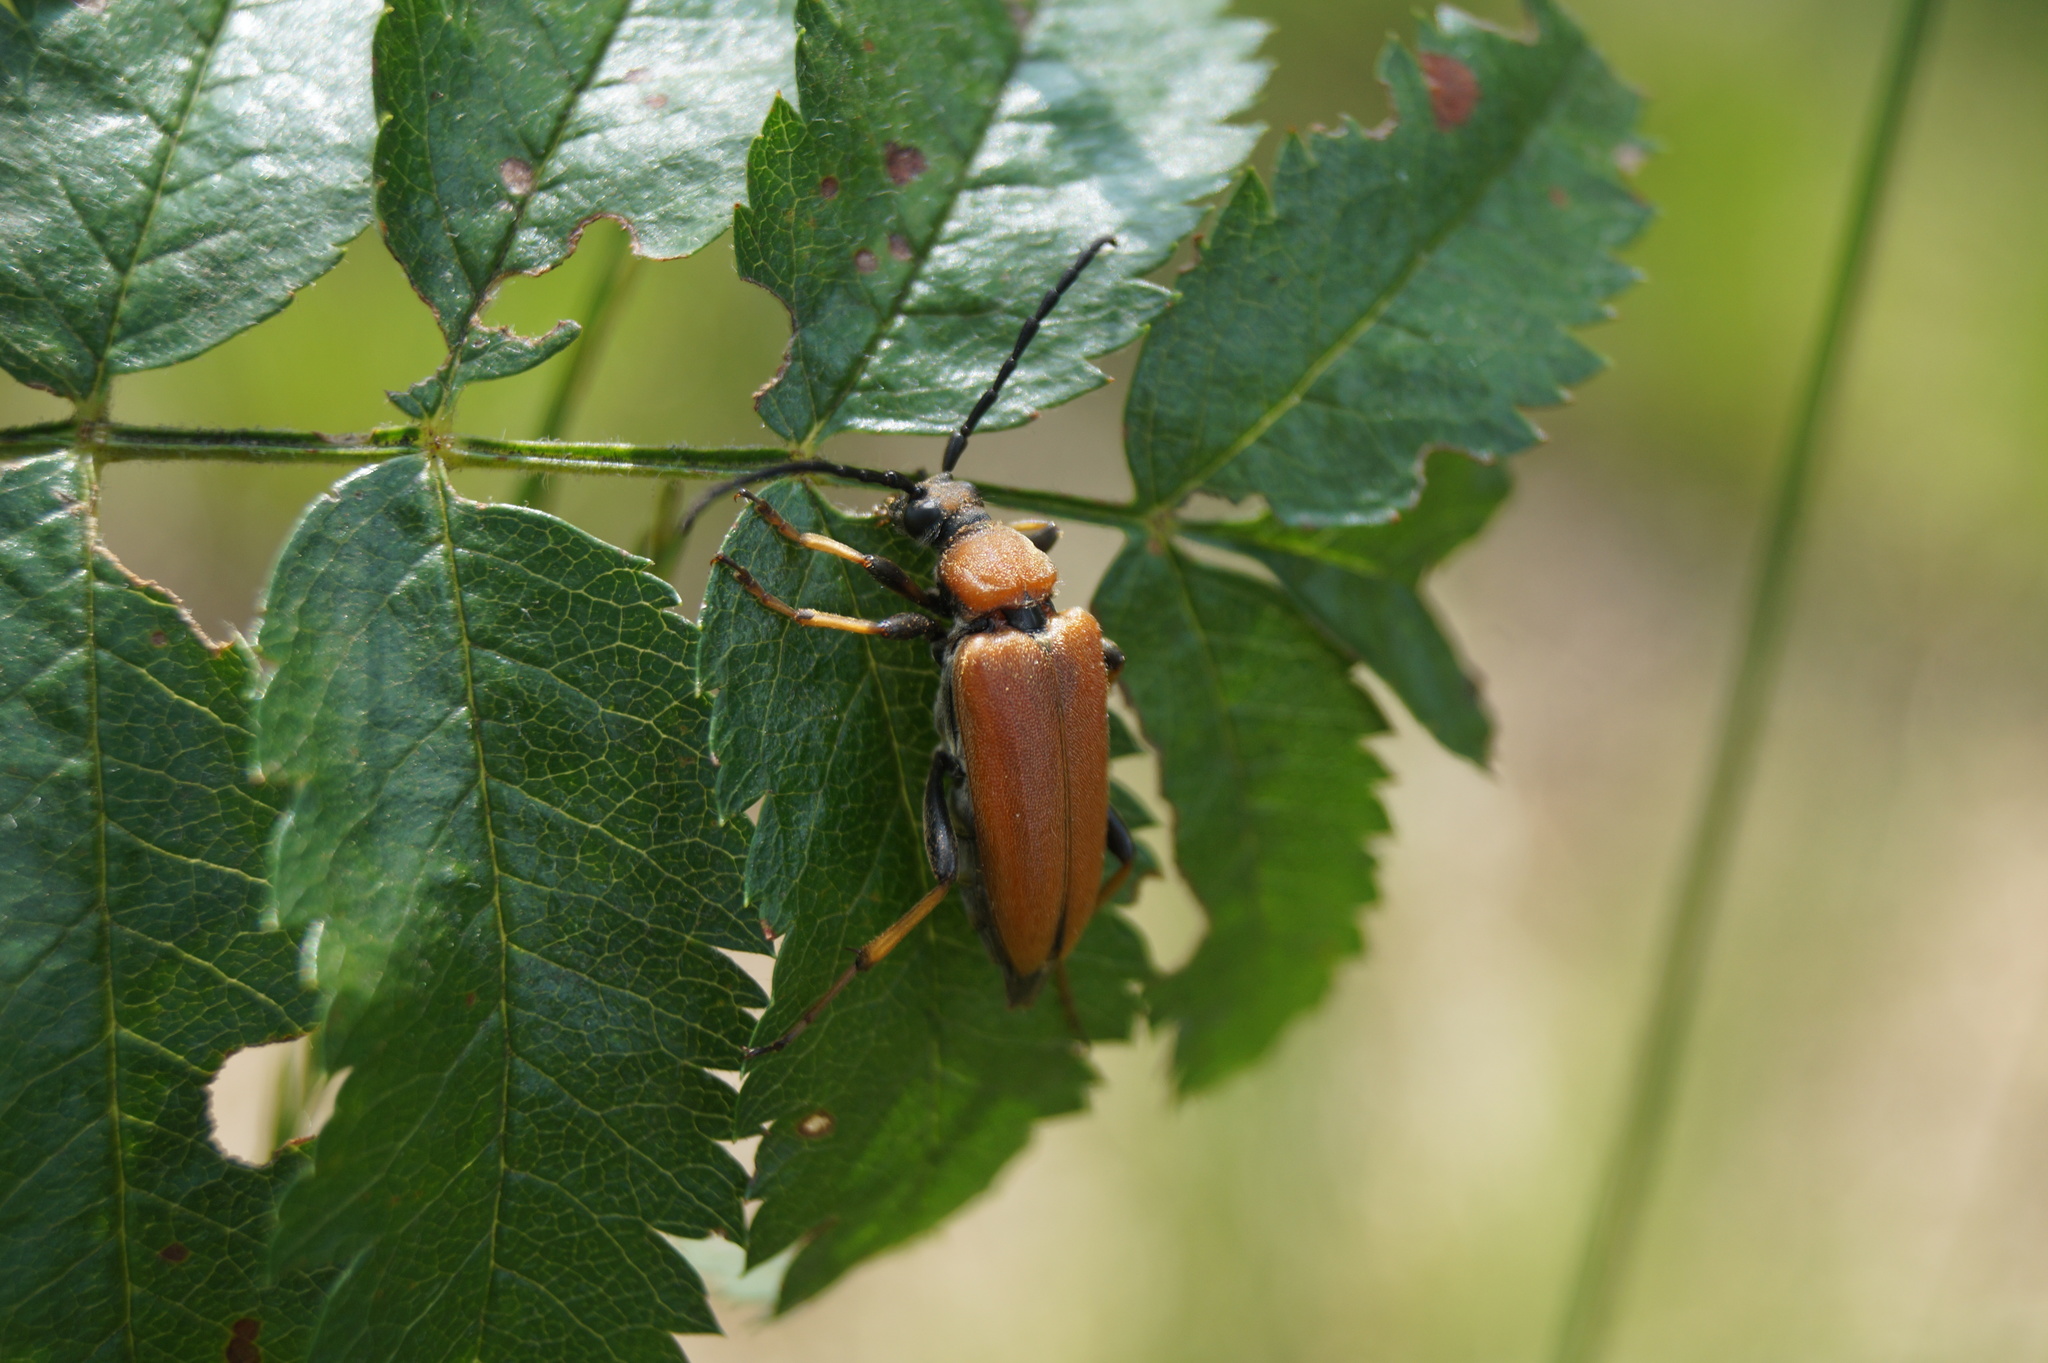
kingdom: Animalia
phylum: Arthropoda
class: Insecta
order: Coleoptera
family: Cerambycidae
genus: Stictoleptura
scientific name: Stictoleptura rubra
